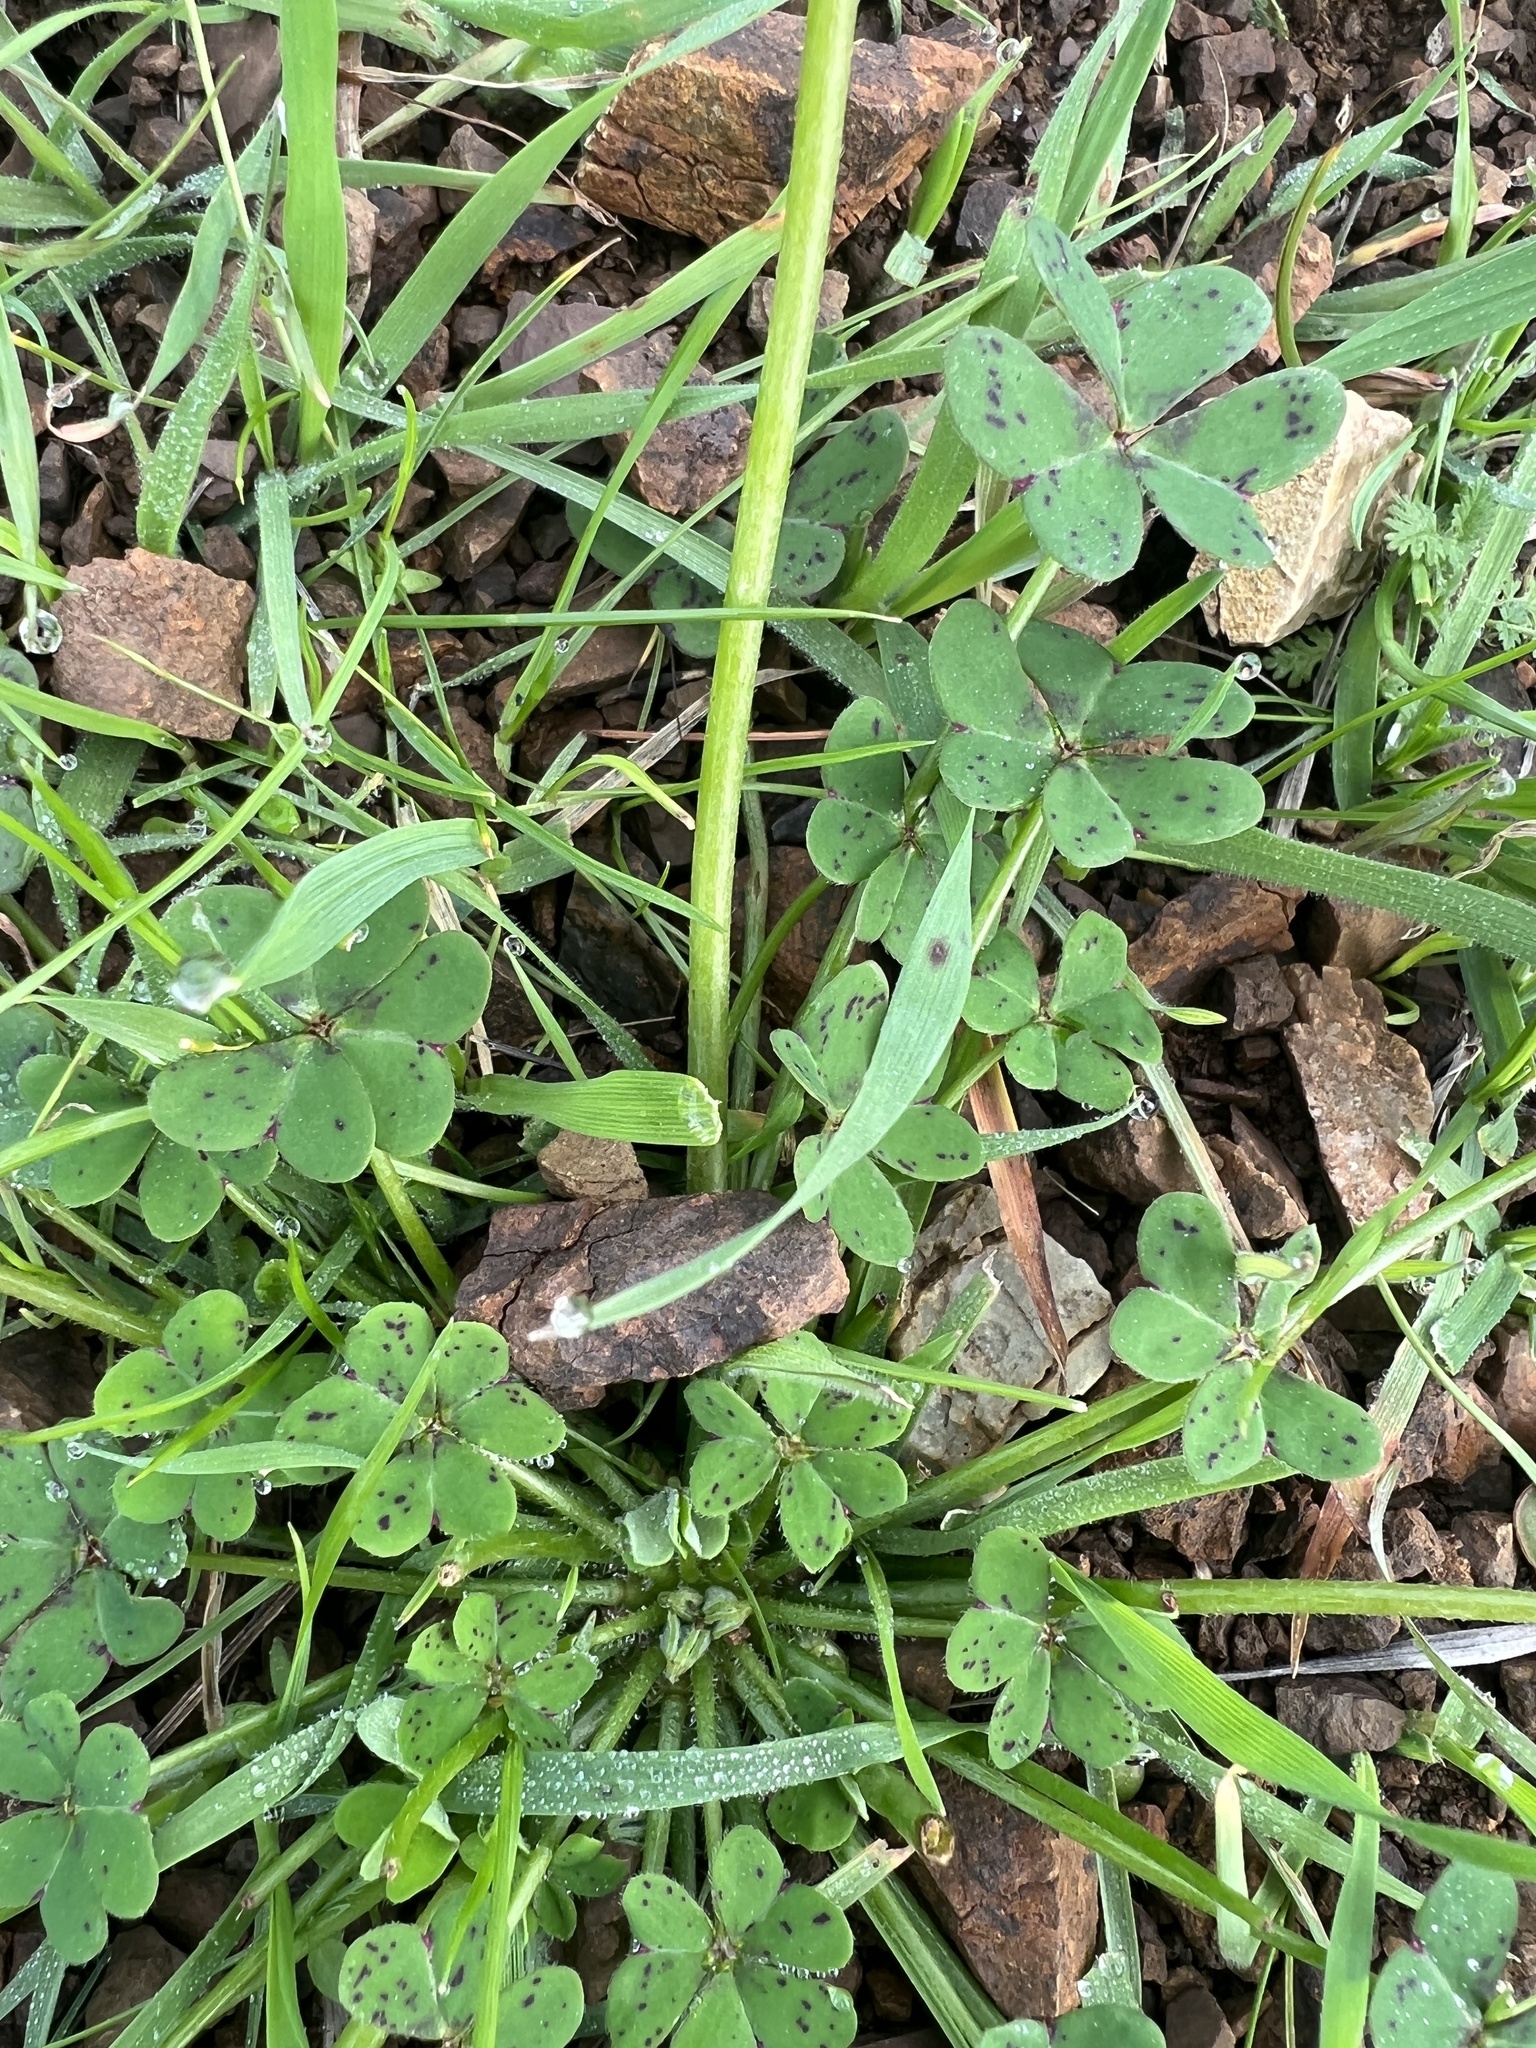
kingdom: Plantae
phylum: Tracheophyta
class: Magnoliopsida
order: Oxalidales
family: Oxalidaceae
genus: Oxalis
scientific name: Oxalis pes-caprae
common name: Bermuda-buttercup
